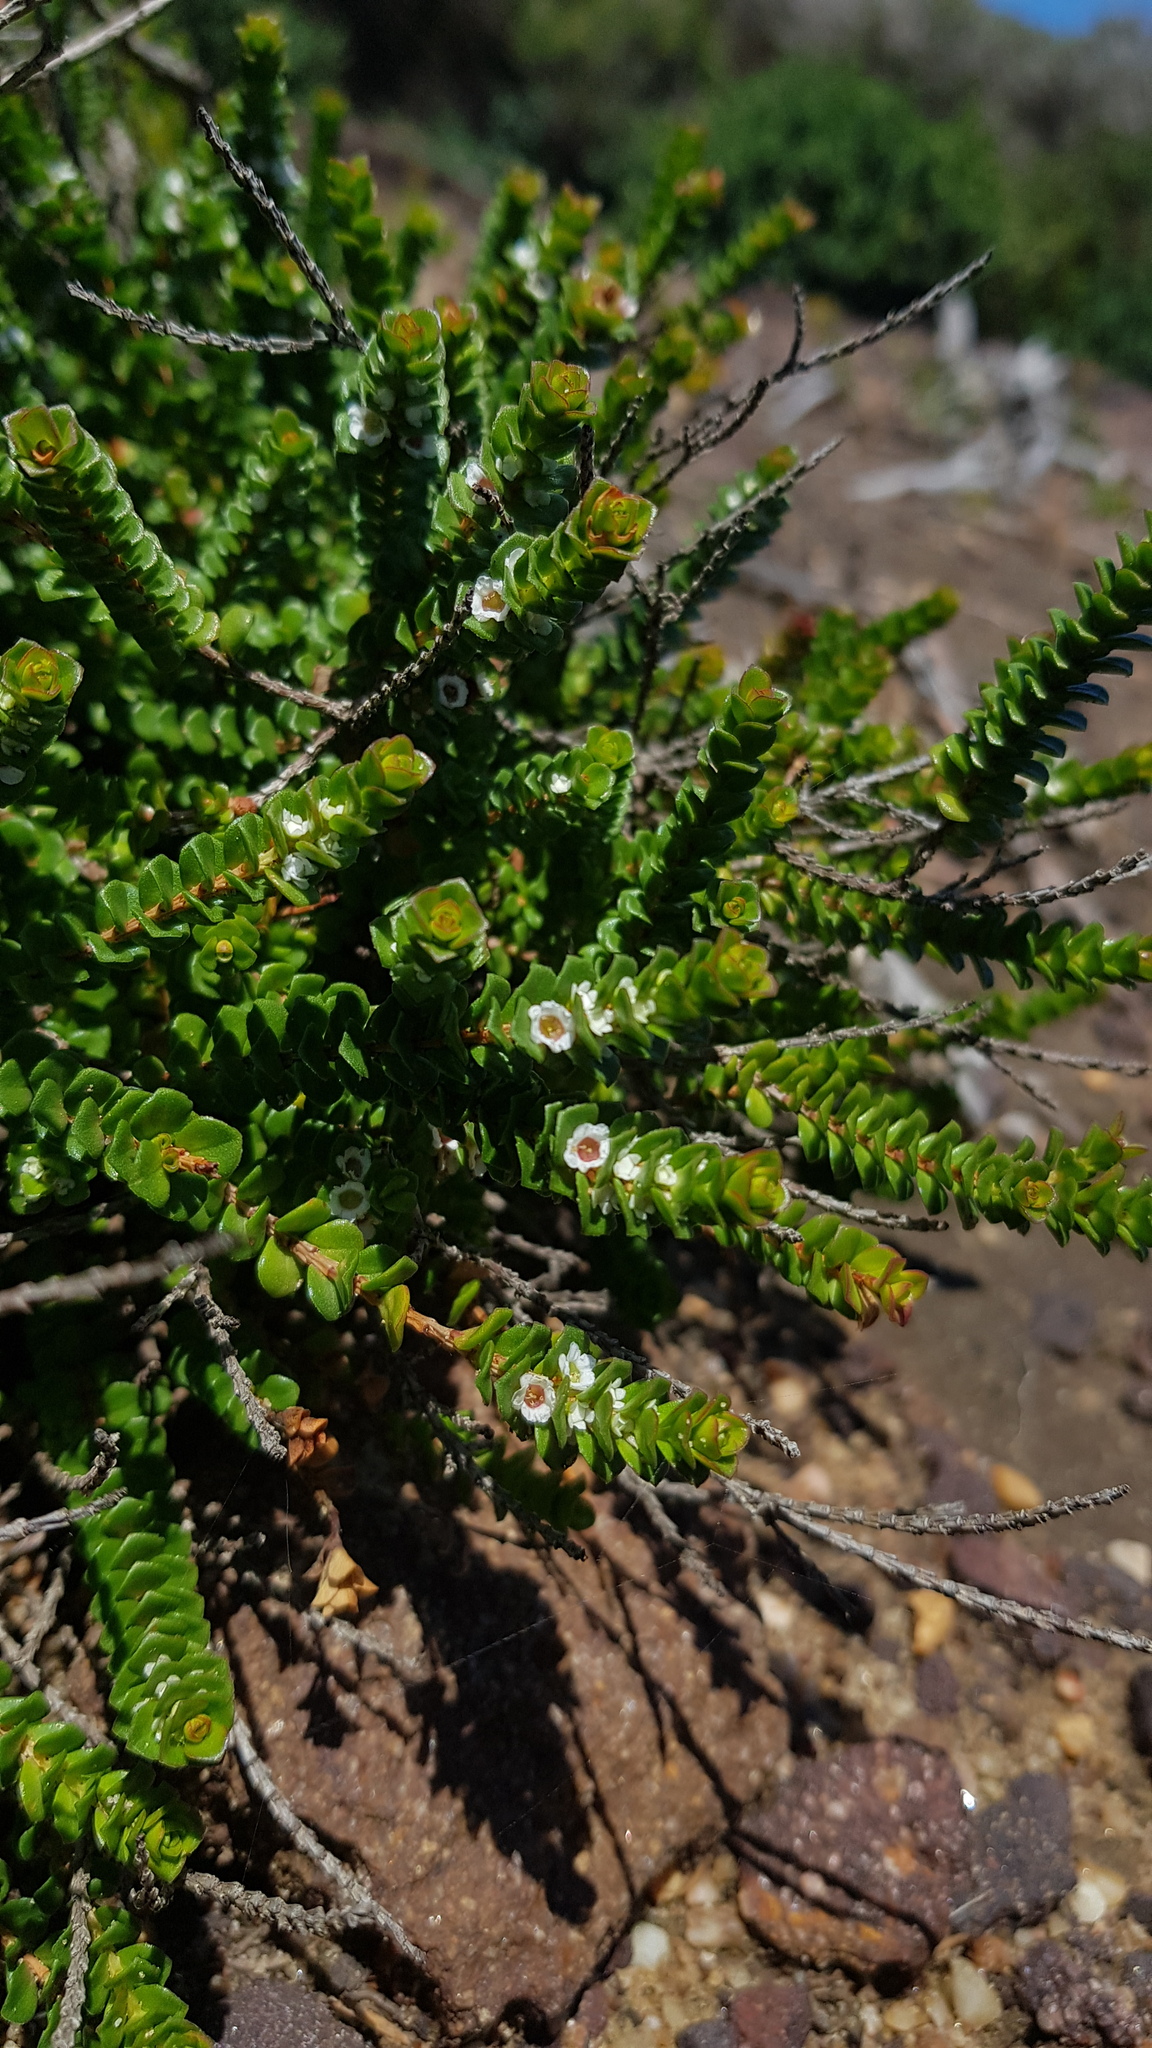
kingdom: Plantae
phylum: Tracheophyta
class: Magnoliopsida
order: Myrtales
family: Myrtaceae
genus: Baeckea
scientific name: Baeckea imbricata
